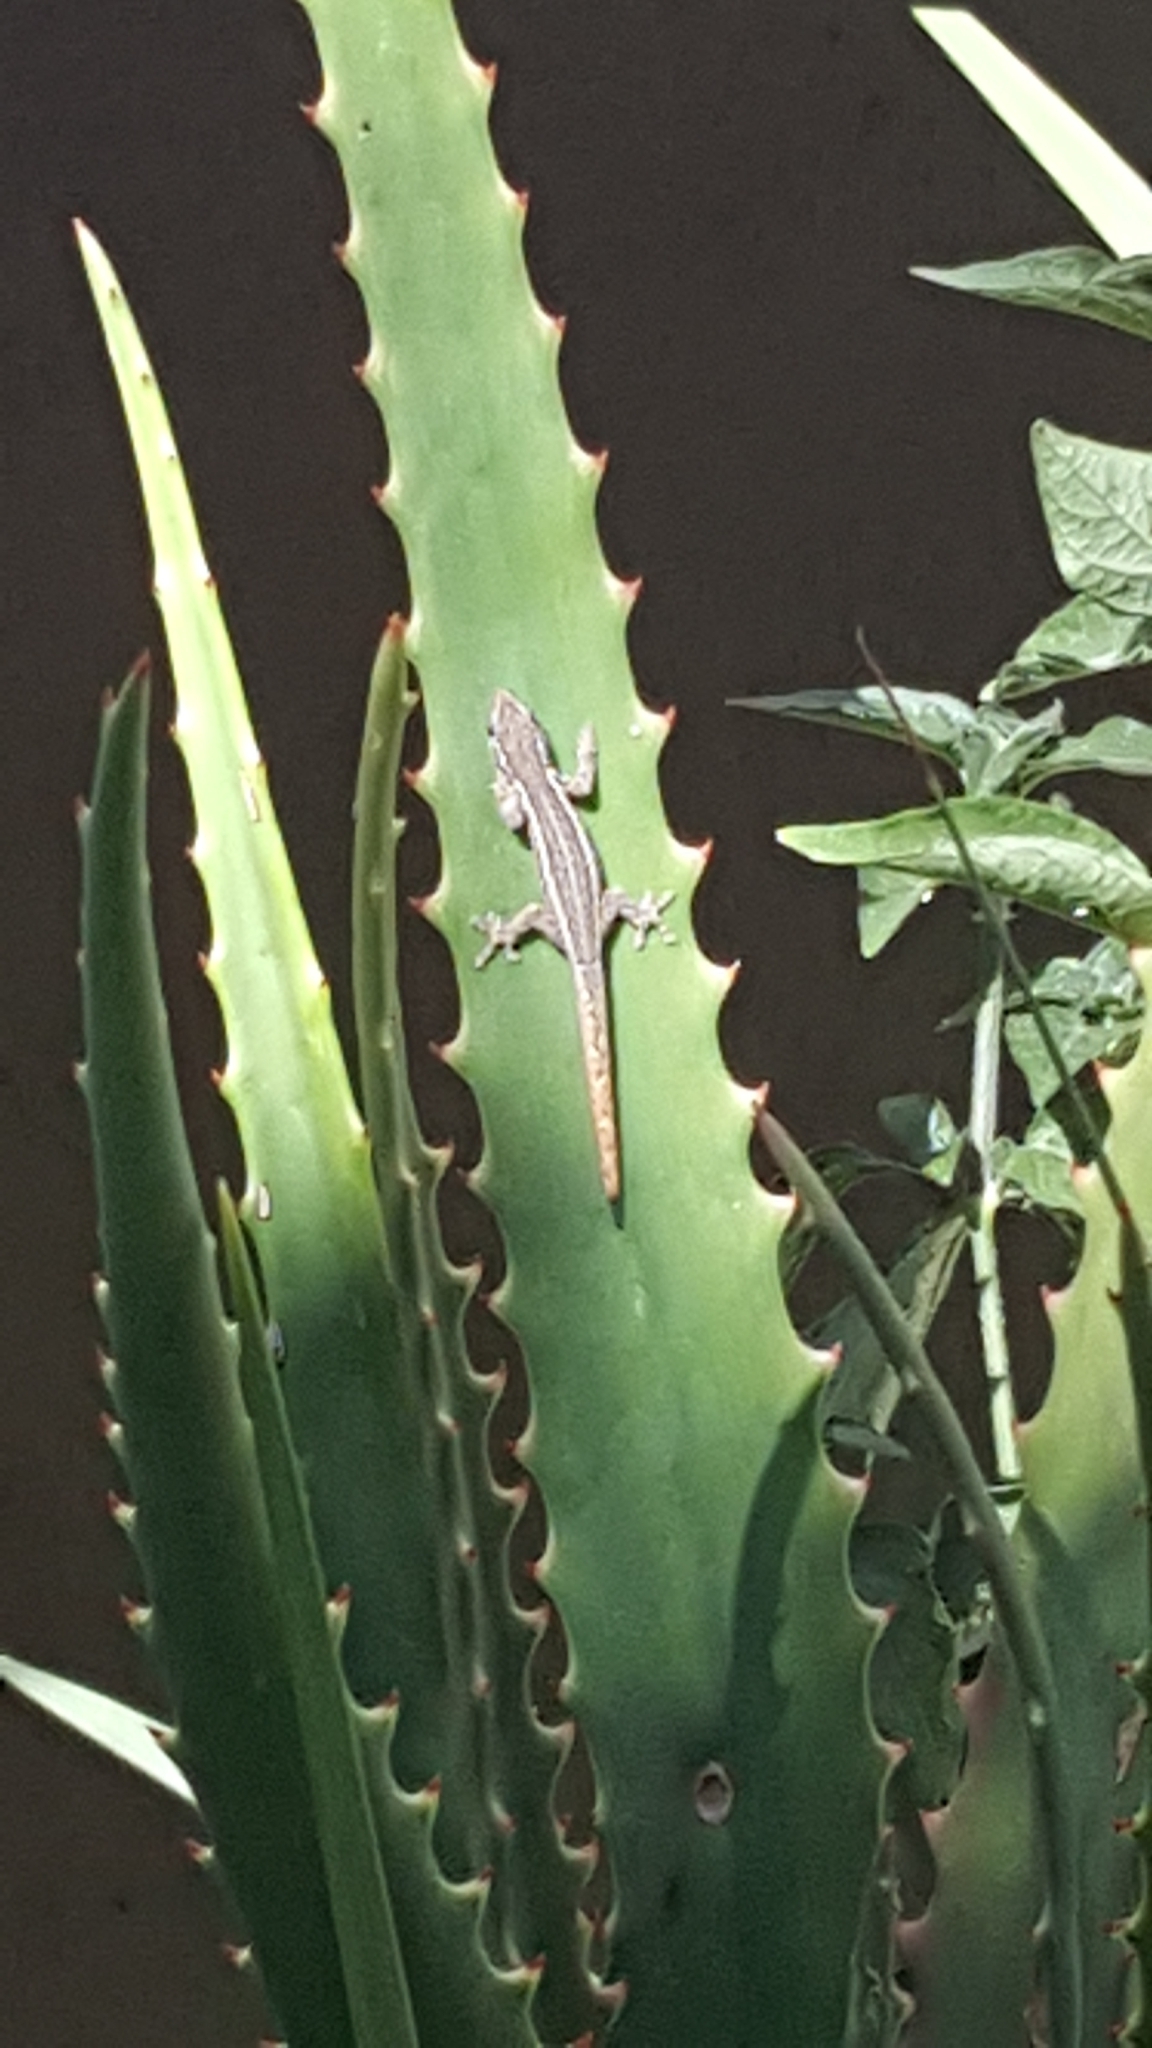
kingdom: Animalia
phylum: Chordata
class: Squamata
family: Gekkonidae
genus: Lygodactylus
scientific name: Lygodactylus capensis
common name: Cape dwarf gecko
